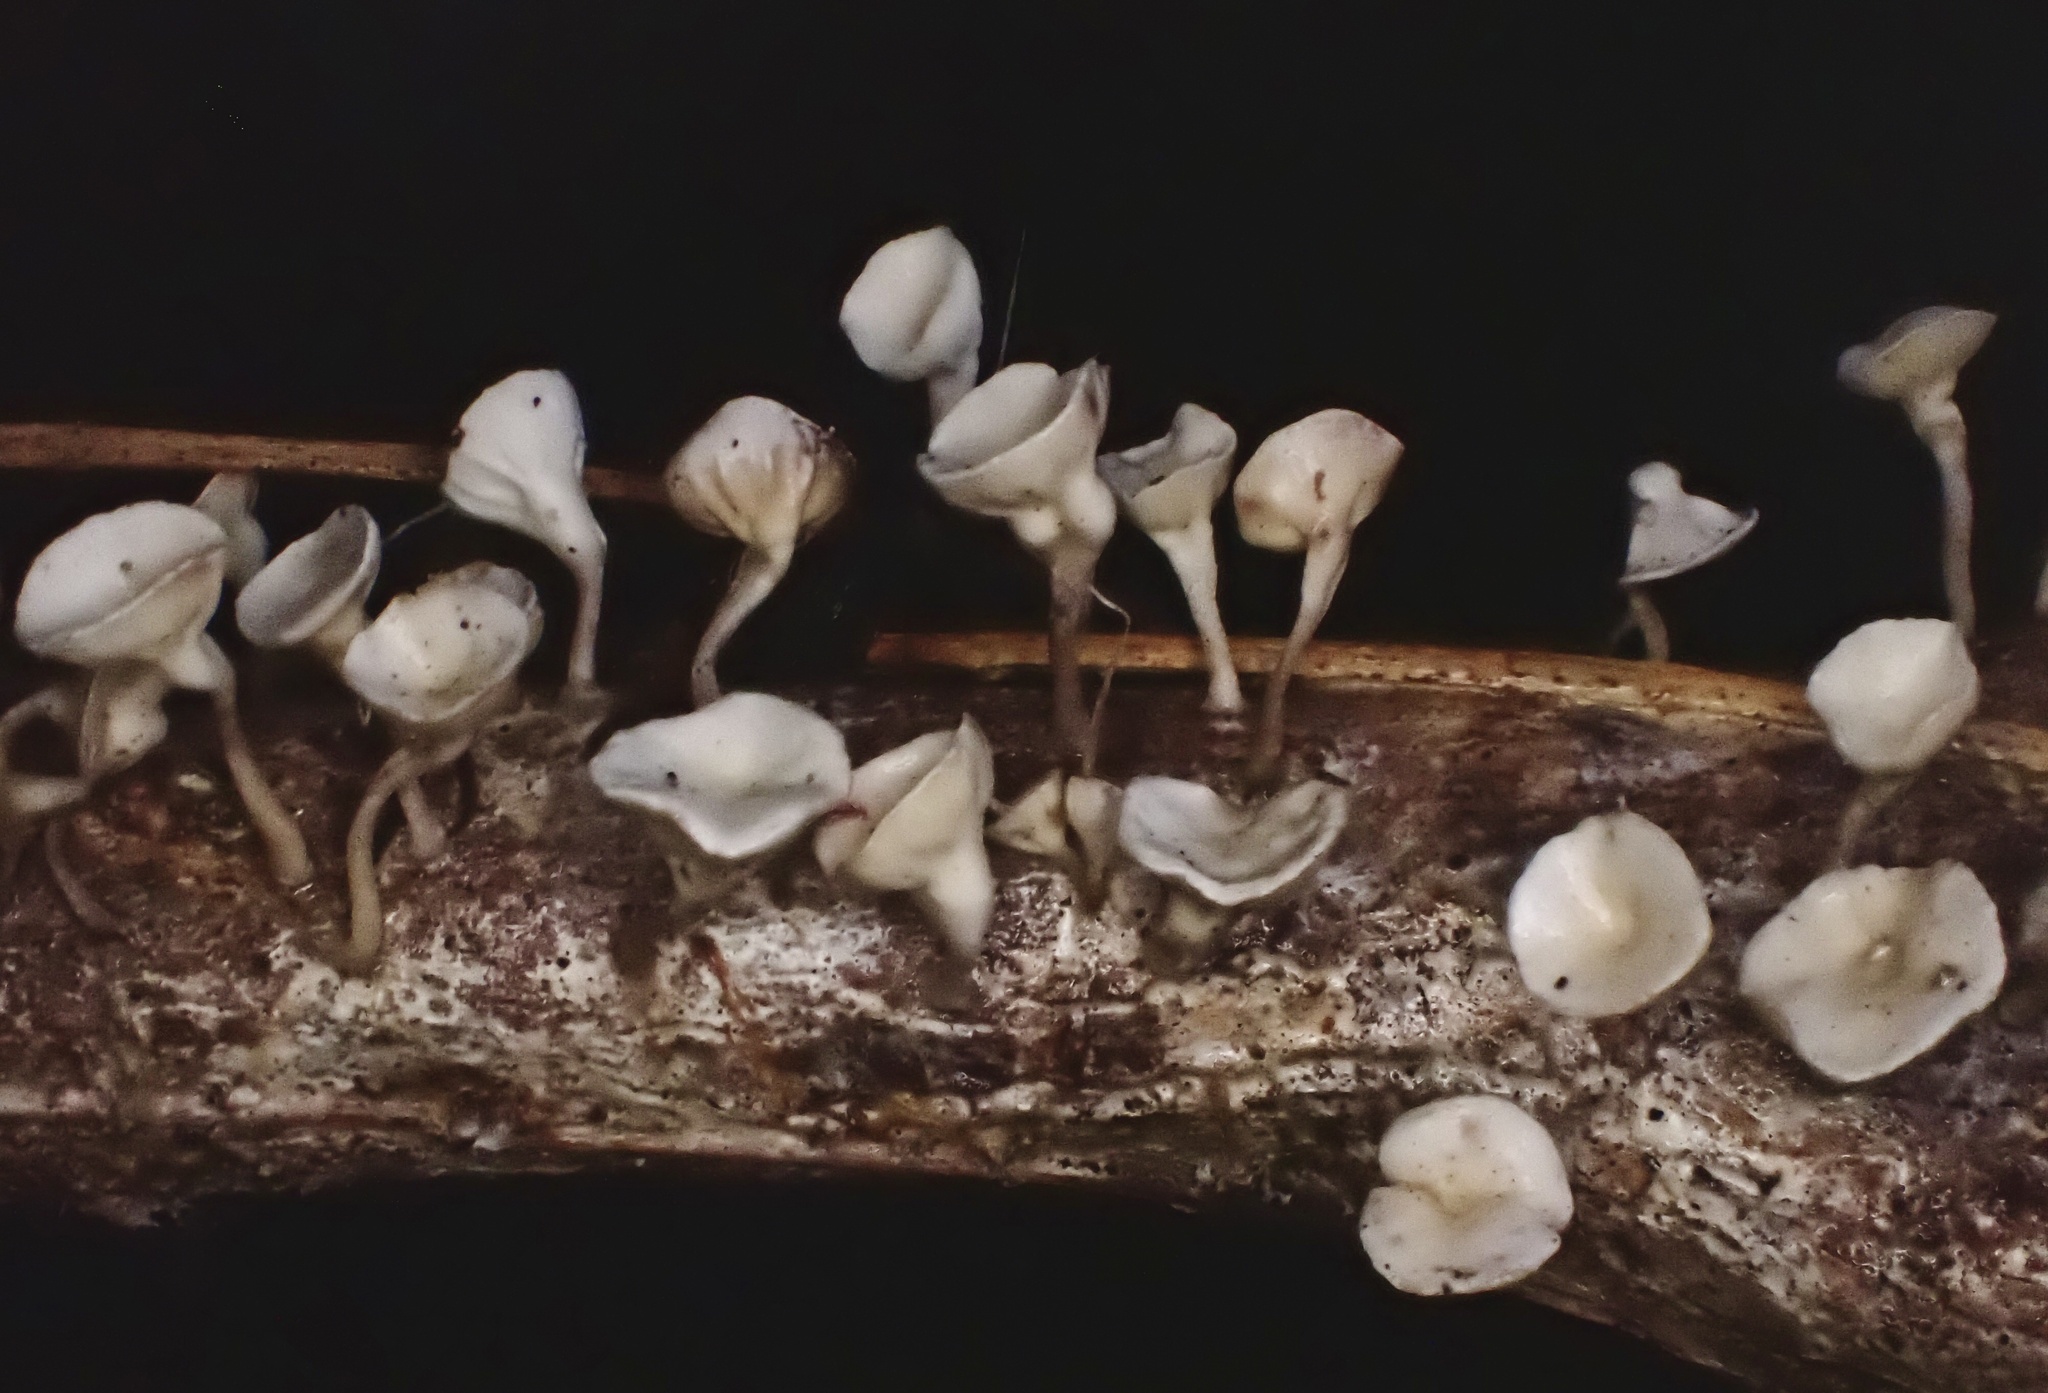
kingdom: Fungi
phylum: Basidiomycota
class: Agaricomycetes
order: Agaricales
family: Omphalotaceae
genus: Gymnopus
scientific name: Gymnopus montagnei
